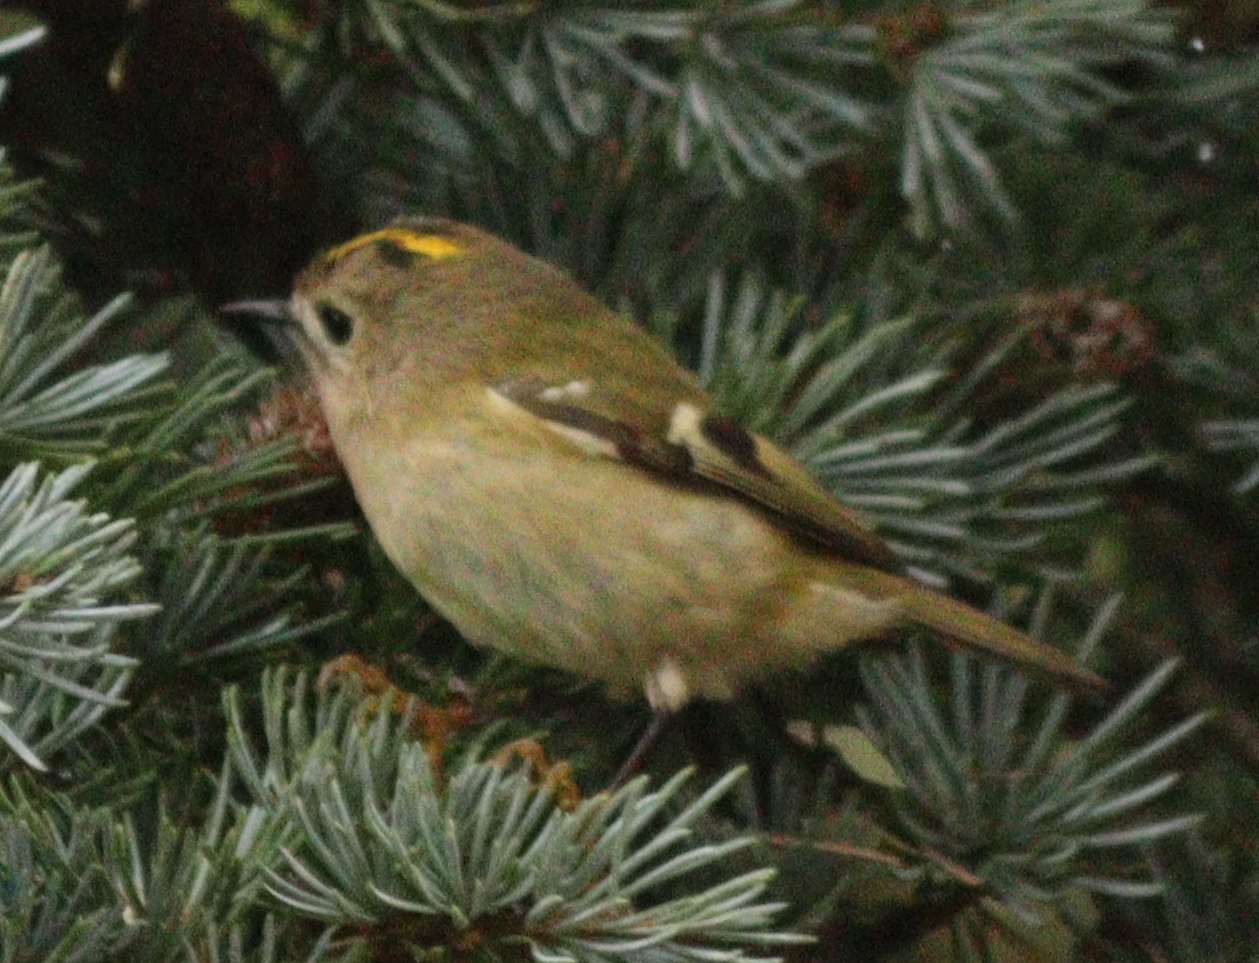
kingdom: Animalia
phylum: Chordata
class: Aves
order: Passeriformes
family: Regulidae
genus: Regulus
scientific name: Regulus regulus
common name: Goldcrest
